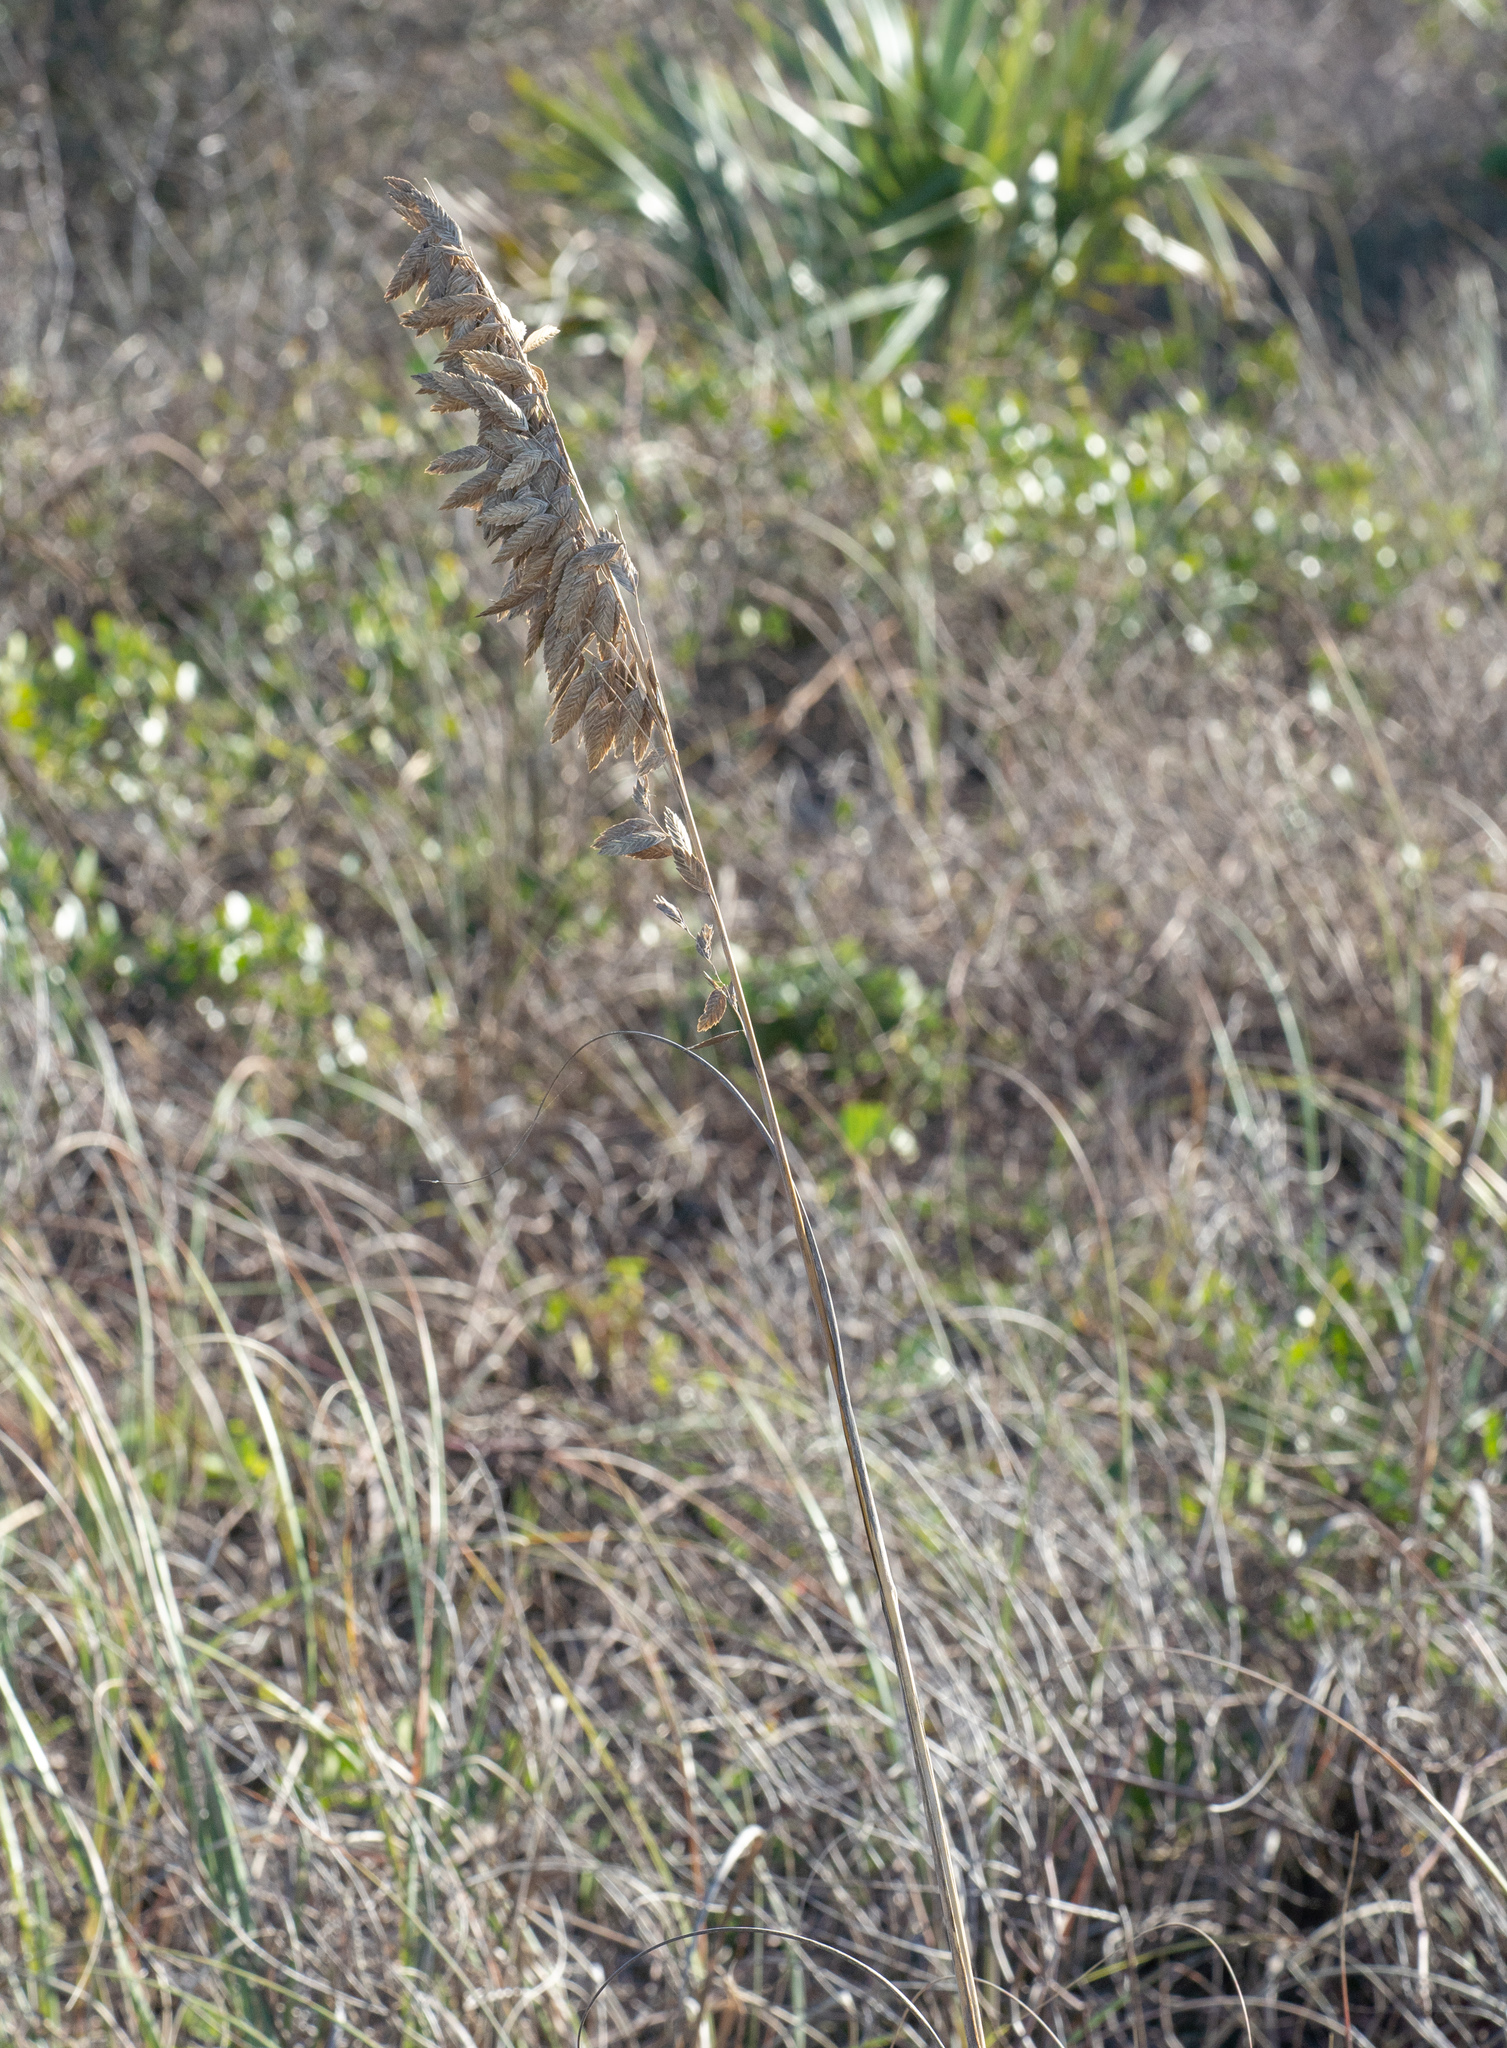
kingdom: Plantae
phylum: Tracheophyta
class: Liliopsida
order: Poales
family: Poaceae
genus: Uniola
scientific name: Uniola paniculata
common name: Seaside-oats
